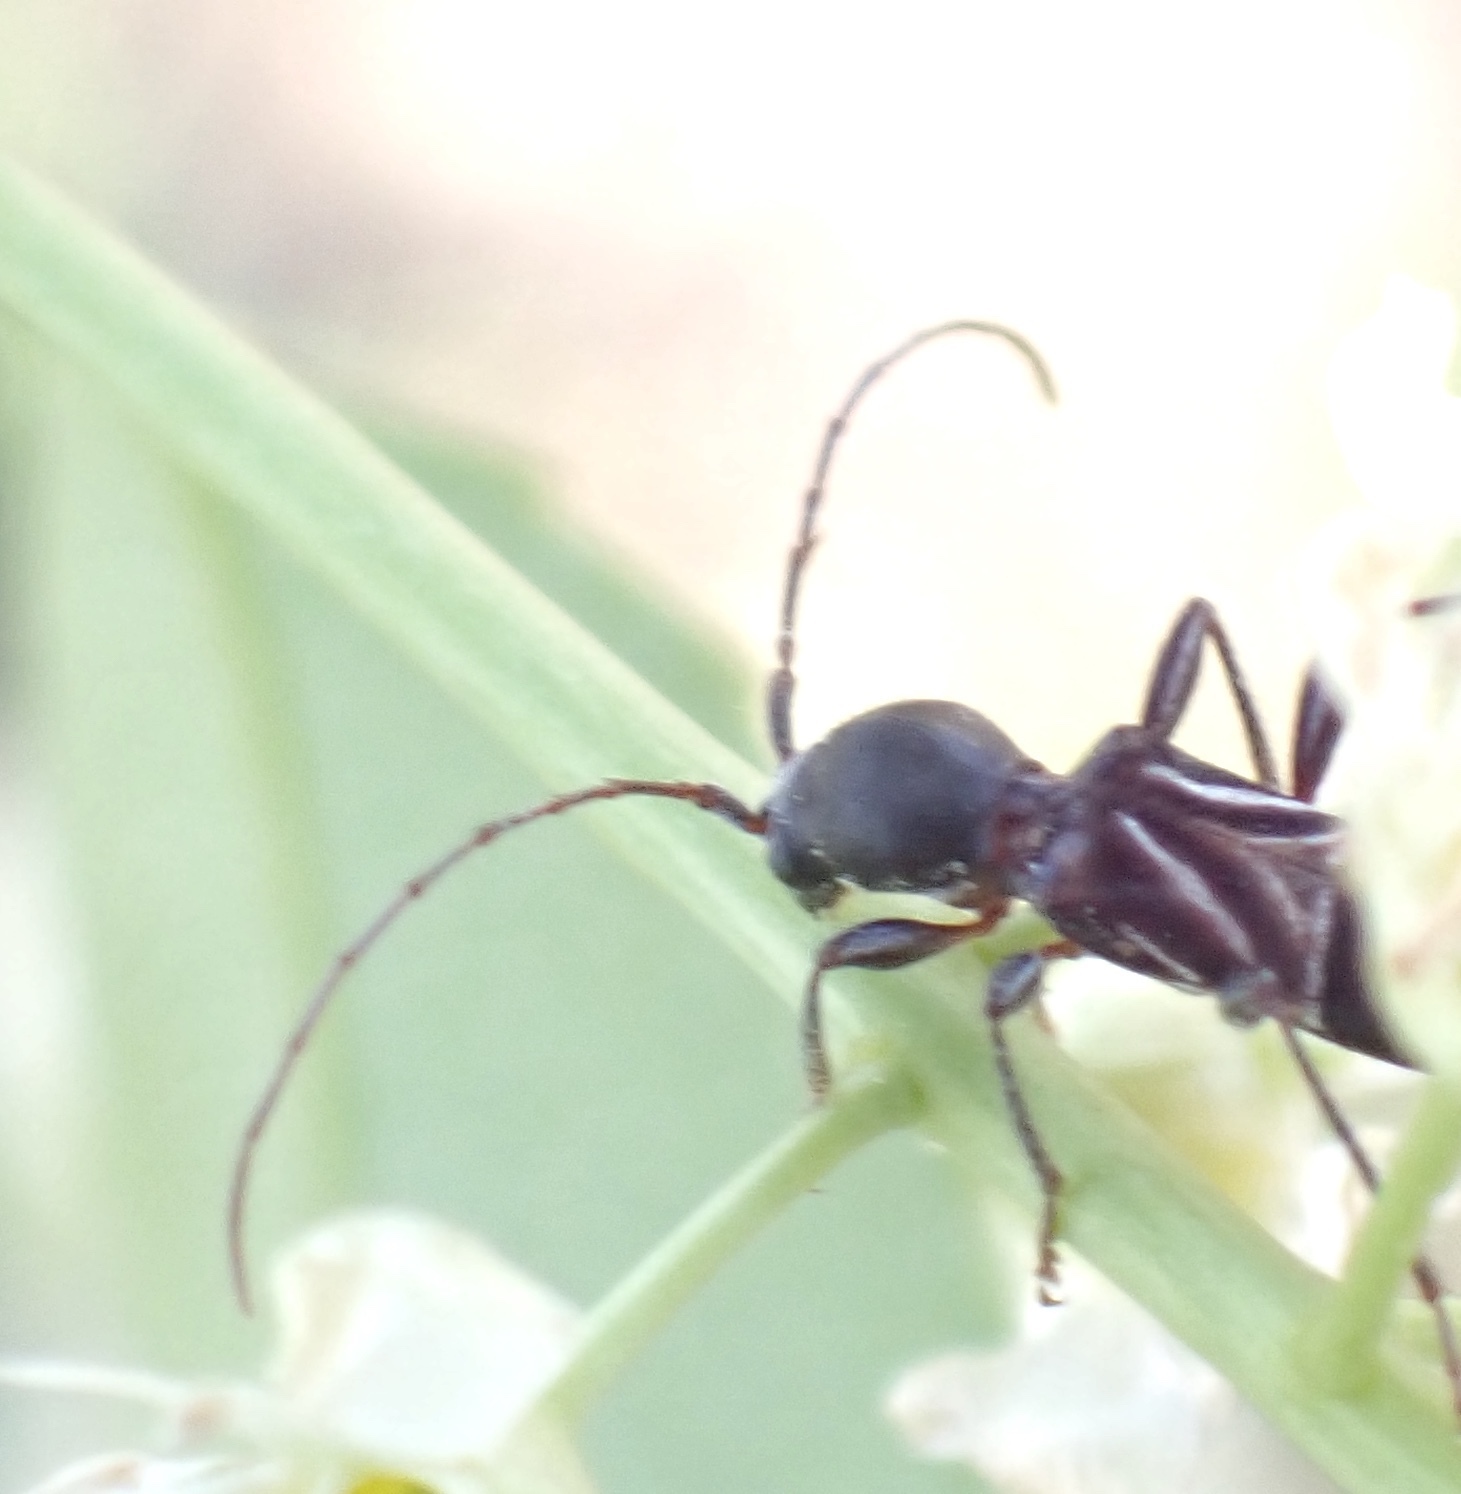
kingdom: Animalia
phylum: Arthropoda
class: Insecta
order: Coleoptera
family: Cerambycidae
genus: Cyrtophorus
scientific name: Cyrtophorus verrucosus
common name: Ant-like longhorn beetle
